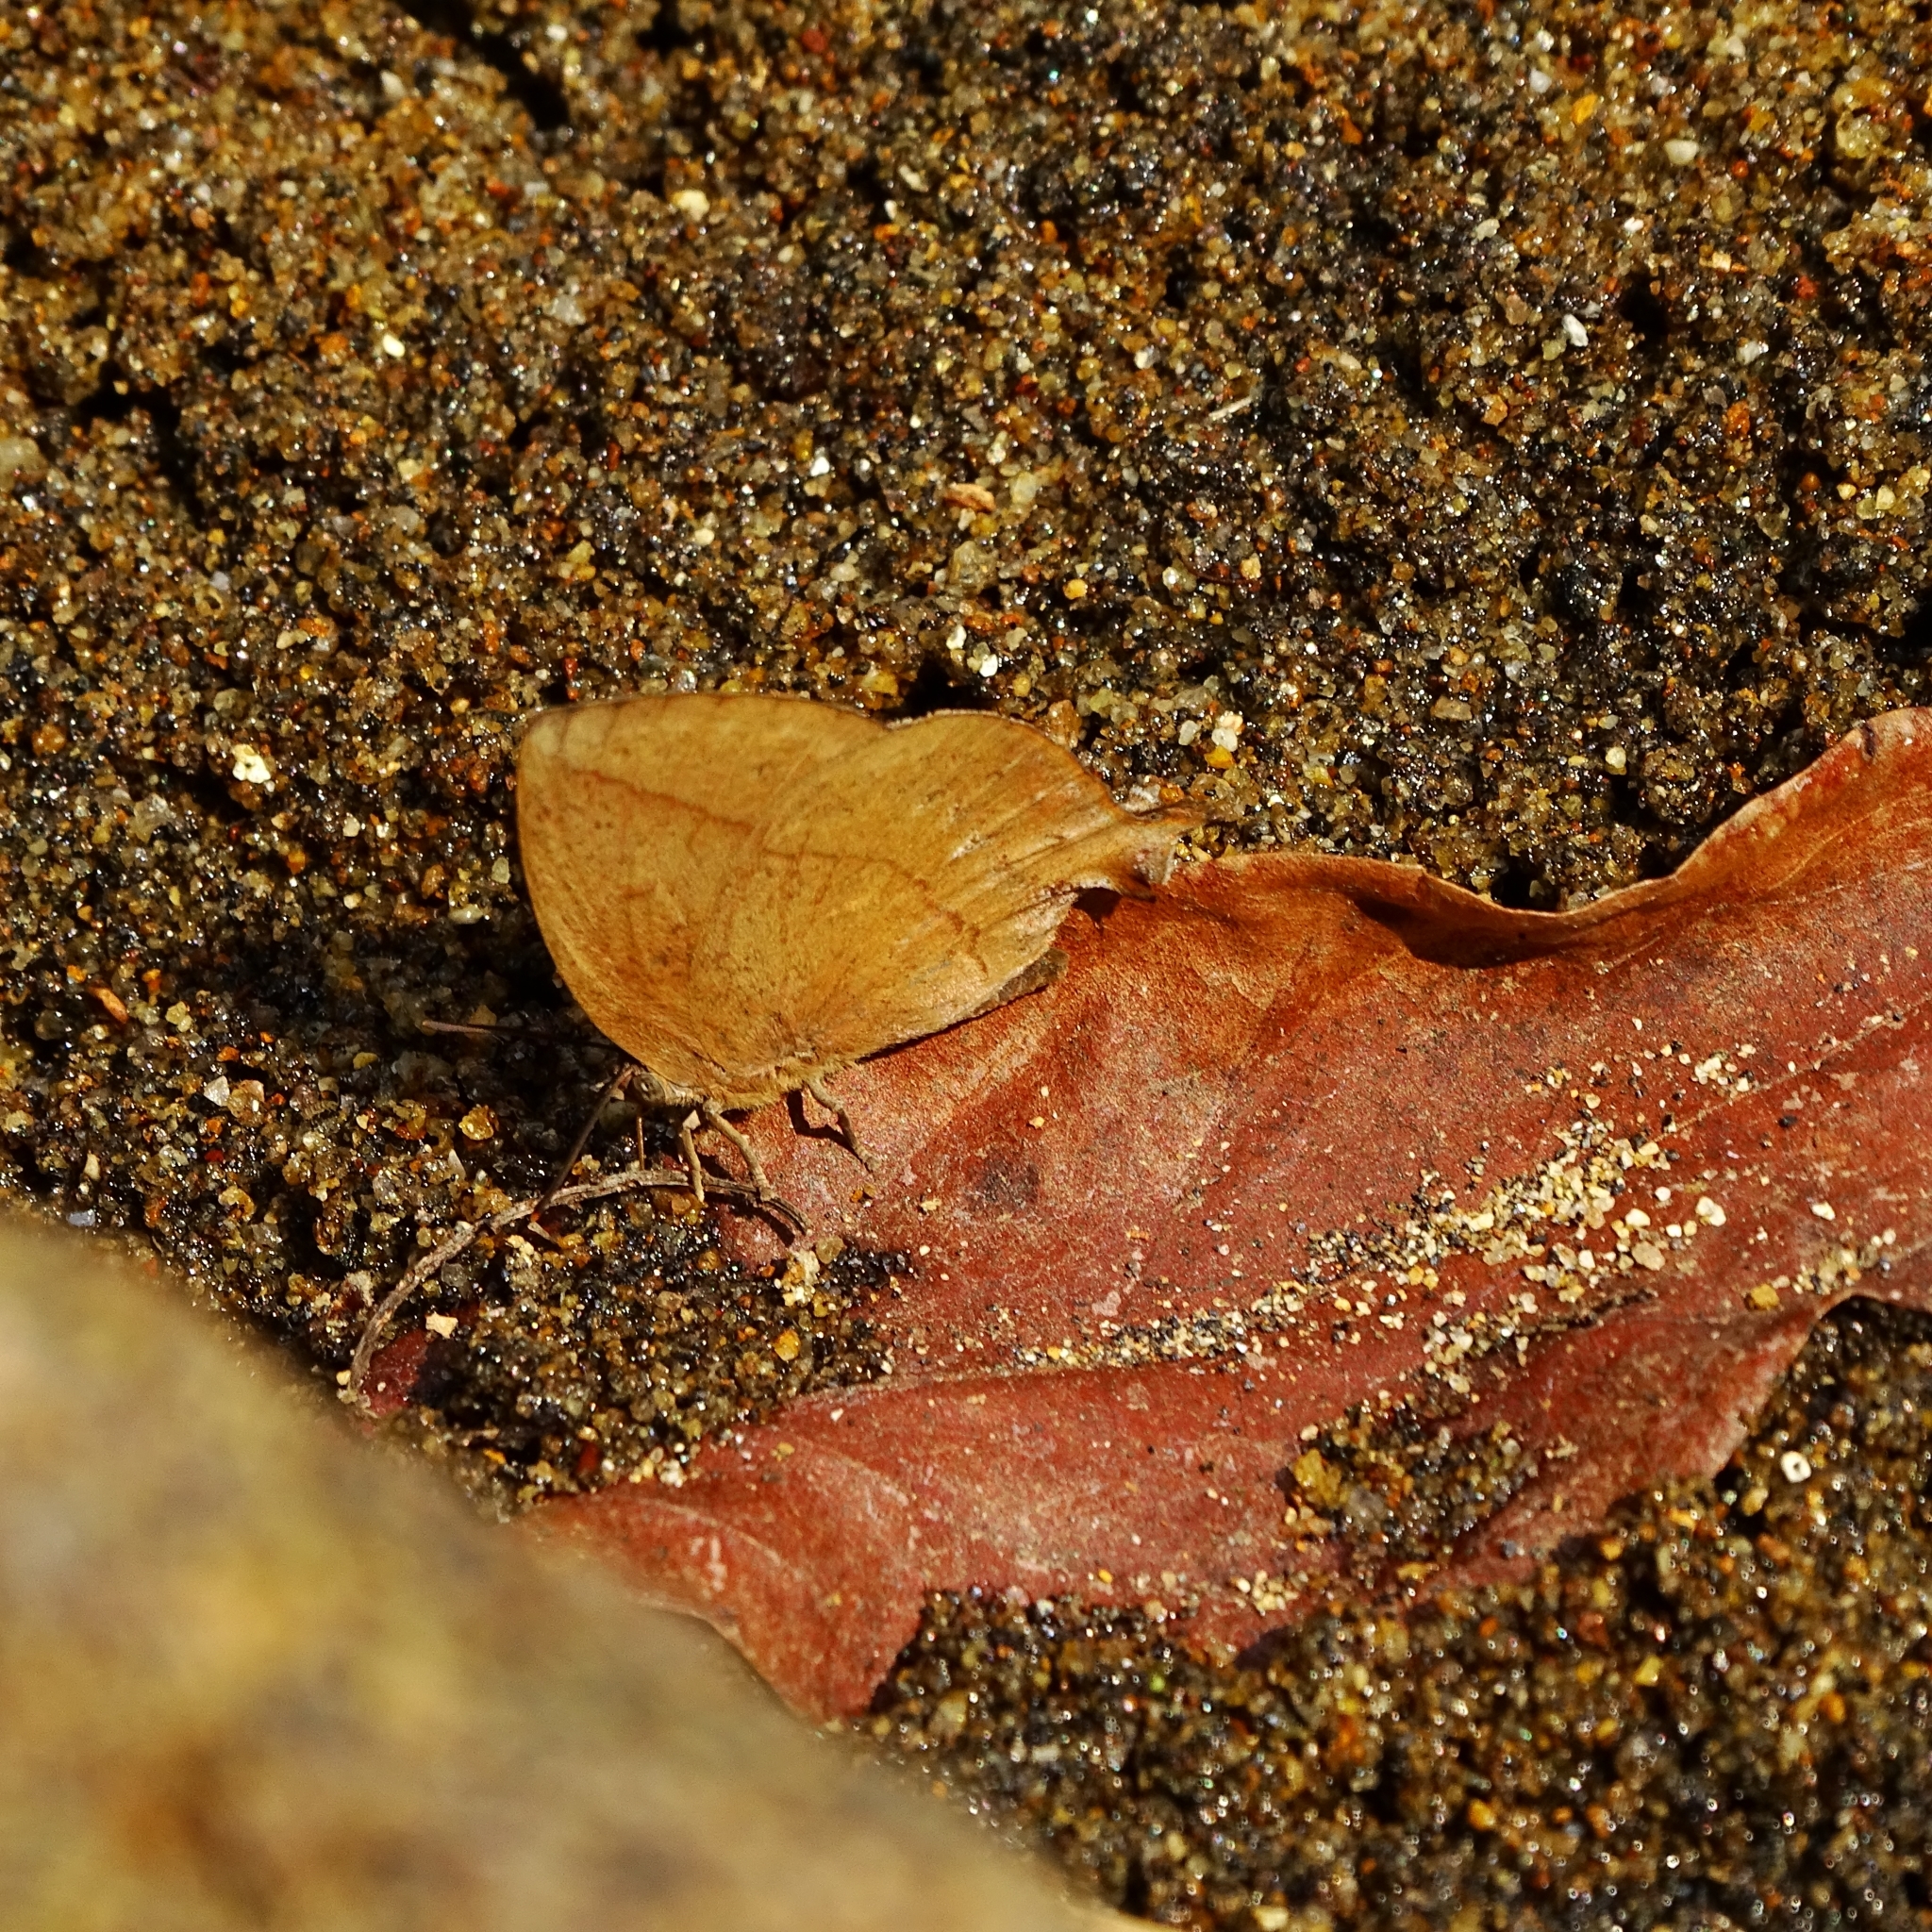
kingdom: Animalia
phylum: Arthropoda
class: Insecta
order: Lepidoptera
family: Lycaenidae
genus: Amblypodia
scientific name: Amblypodia anita
